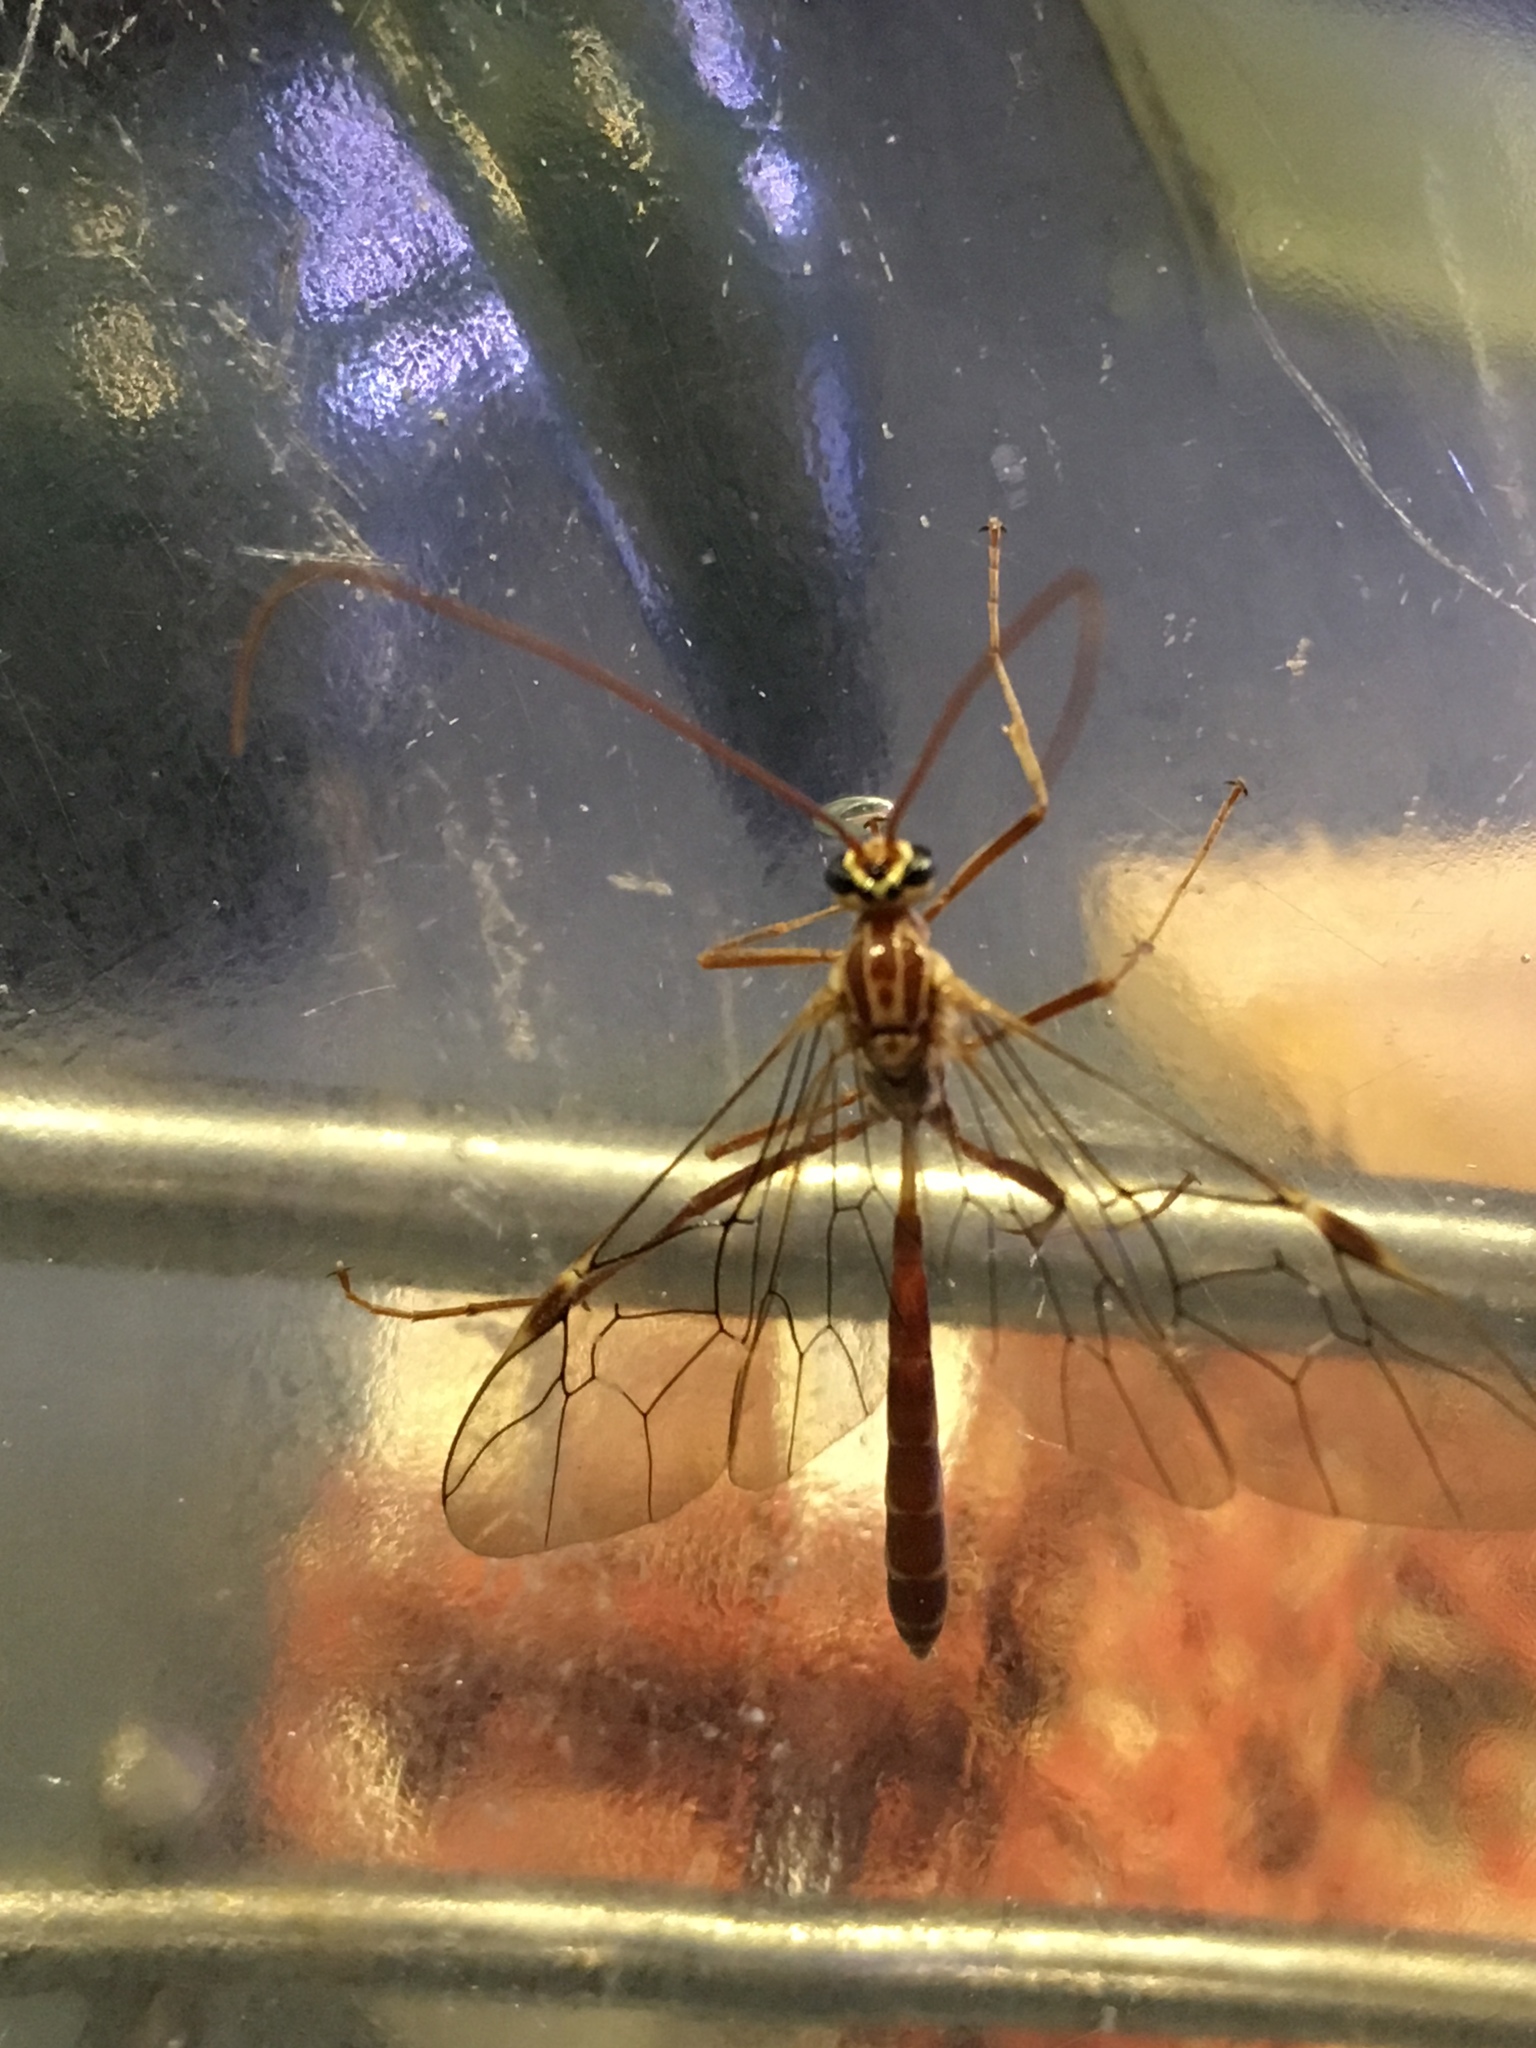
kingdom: Animalia
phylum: Arthropoda
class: Insecta
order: Hymenoptera
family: Ichneumonidae
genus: Ophion
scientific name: Ophion
